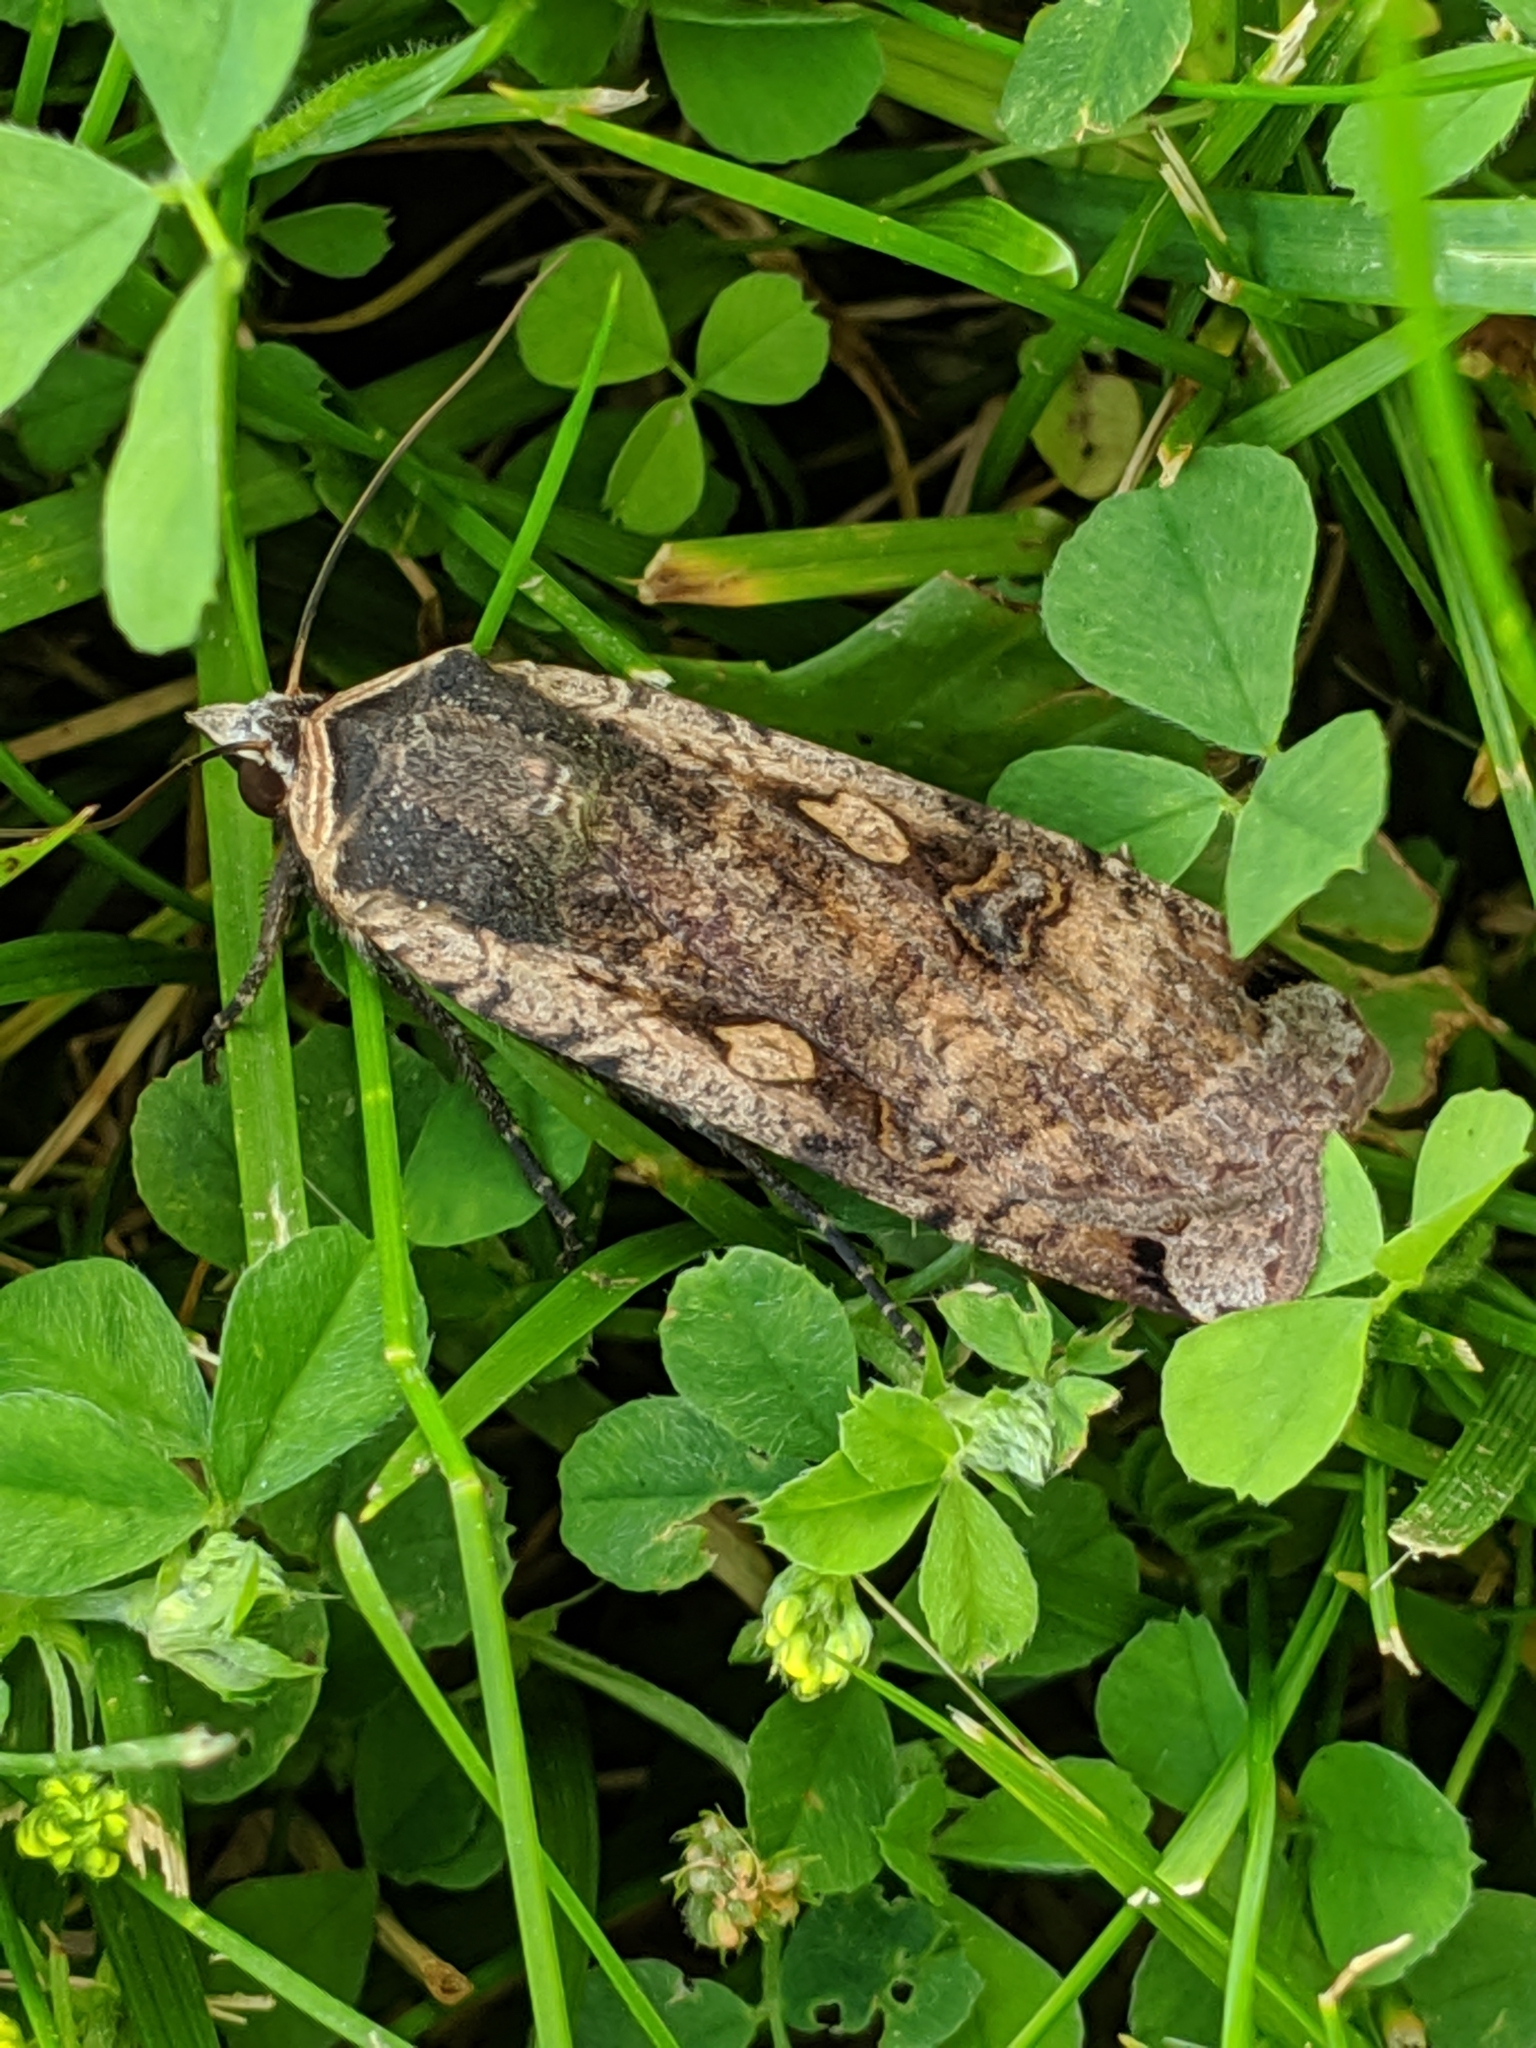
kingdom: Animalia
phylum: Arthropoda
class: Insecta
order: Lepidoptera
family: Noctuidae
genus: Noctua
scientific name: Noctua pronuba
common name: Large yellow underwing
